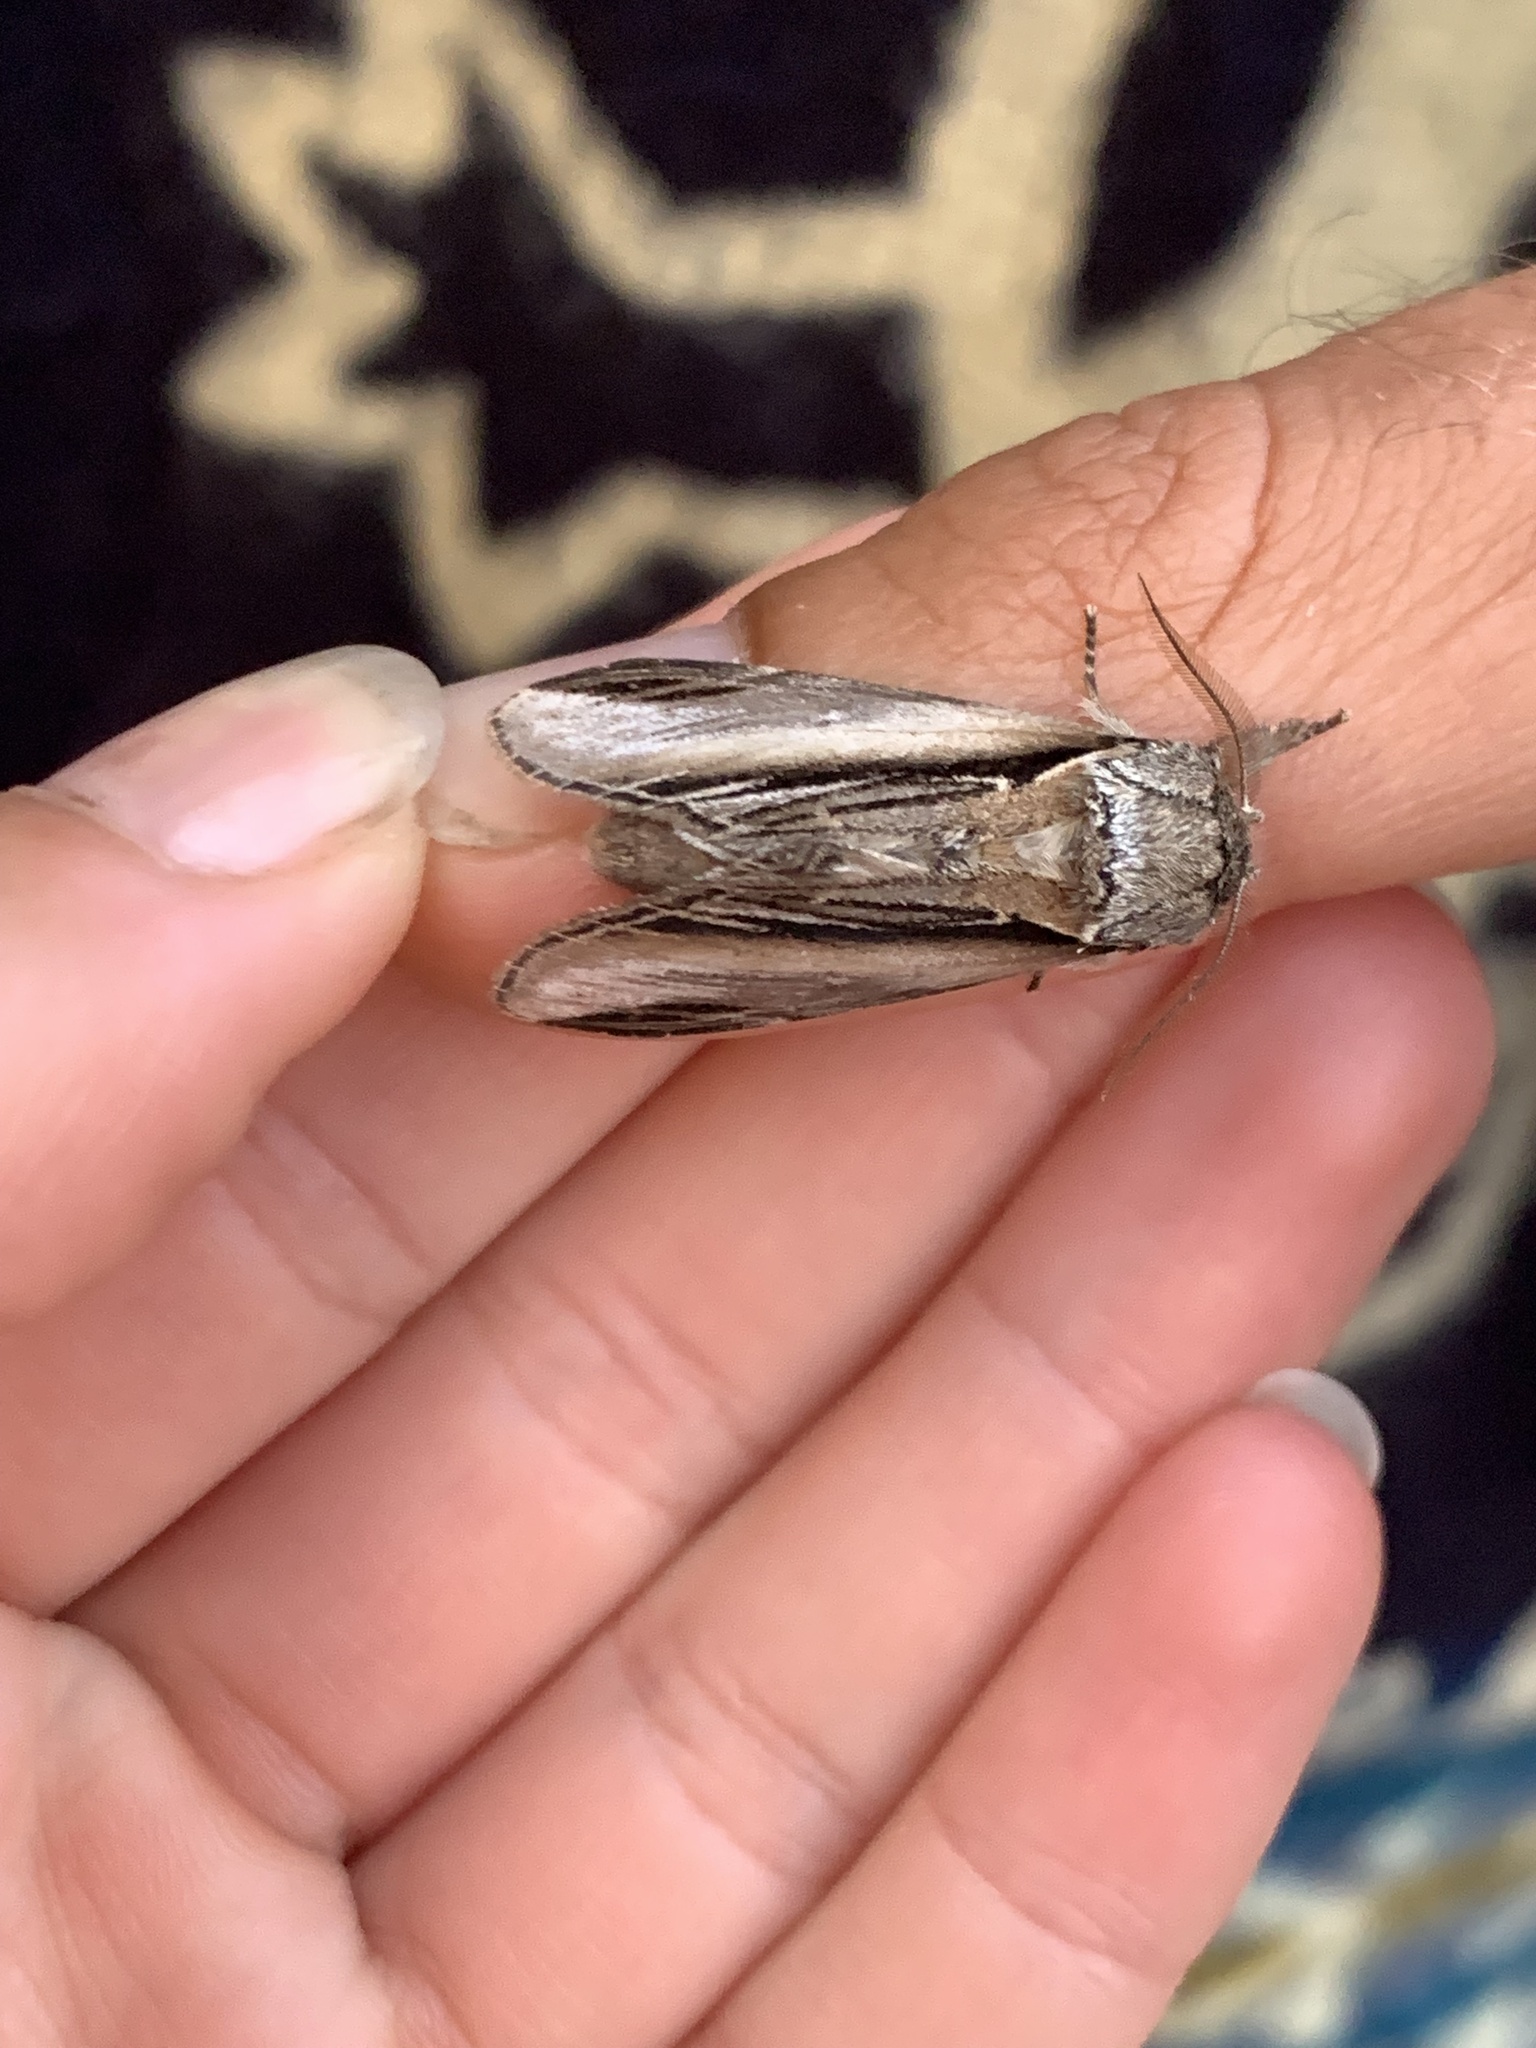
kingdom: Animalia
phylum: Arthropoda
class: Insecta
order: Lepidoptera
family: Notodontidae
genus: Pheosia
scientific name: Pheosia tremula
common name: Swallow prominent
